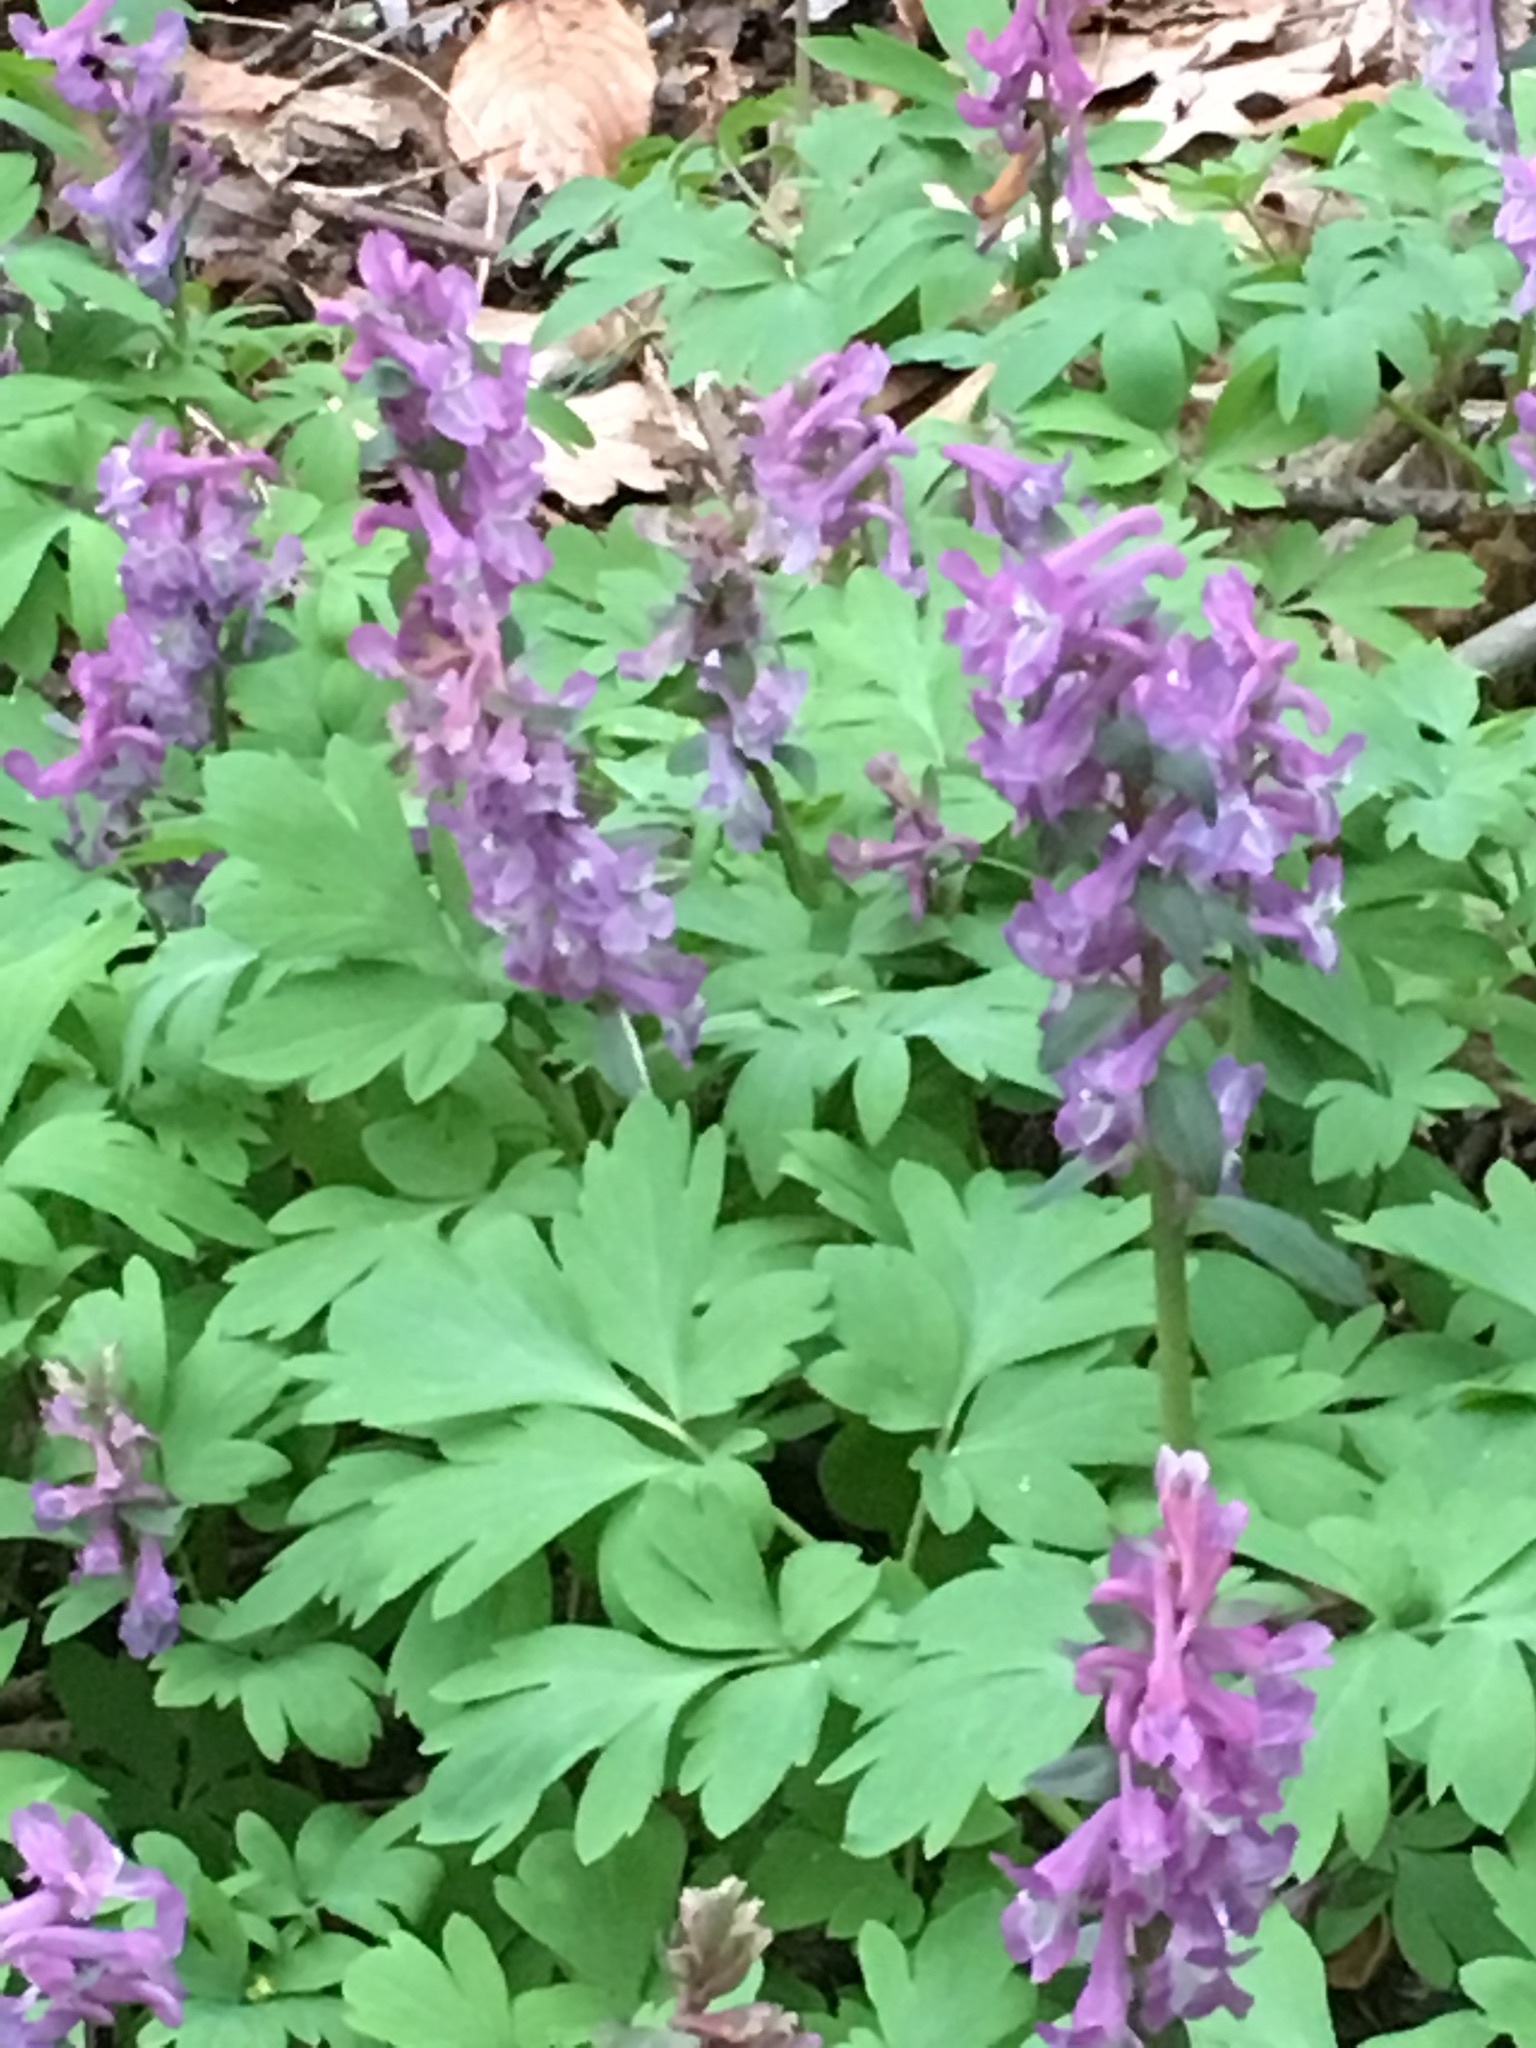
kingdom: Plantae
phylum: Tracheophyta
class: Magnoliopsida
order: Ranunculales
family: Papaveraceae
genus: Corydalis
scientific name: Corydalis cava
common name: Hollowroot
